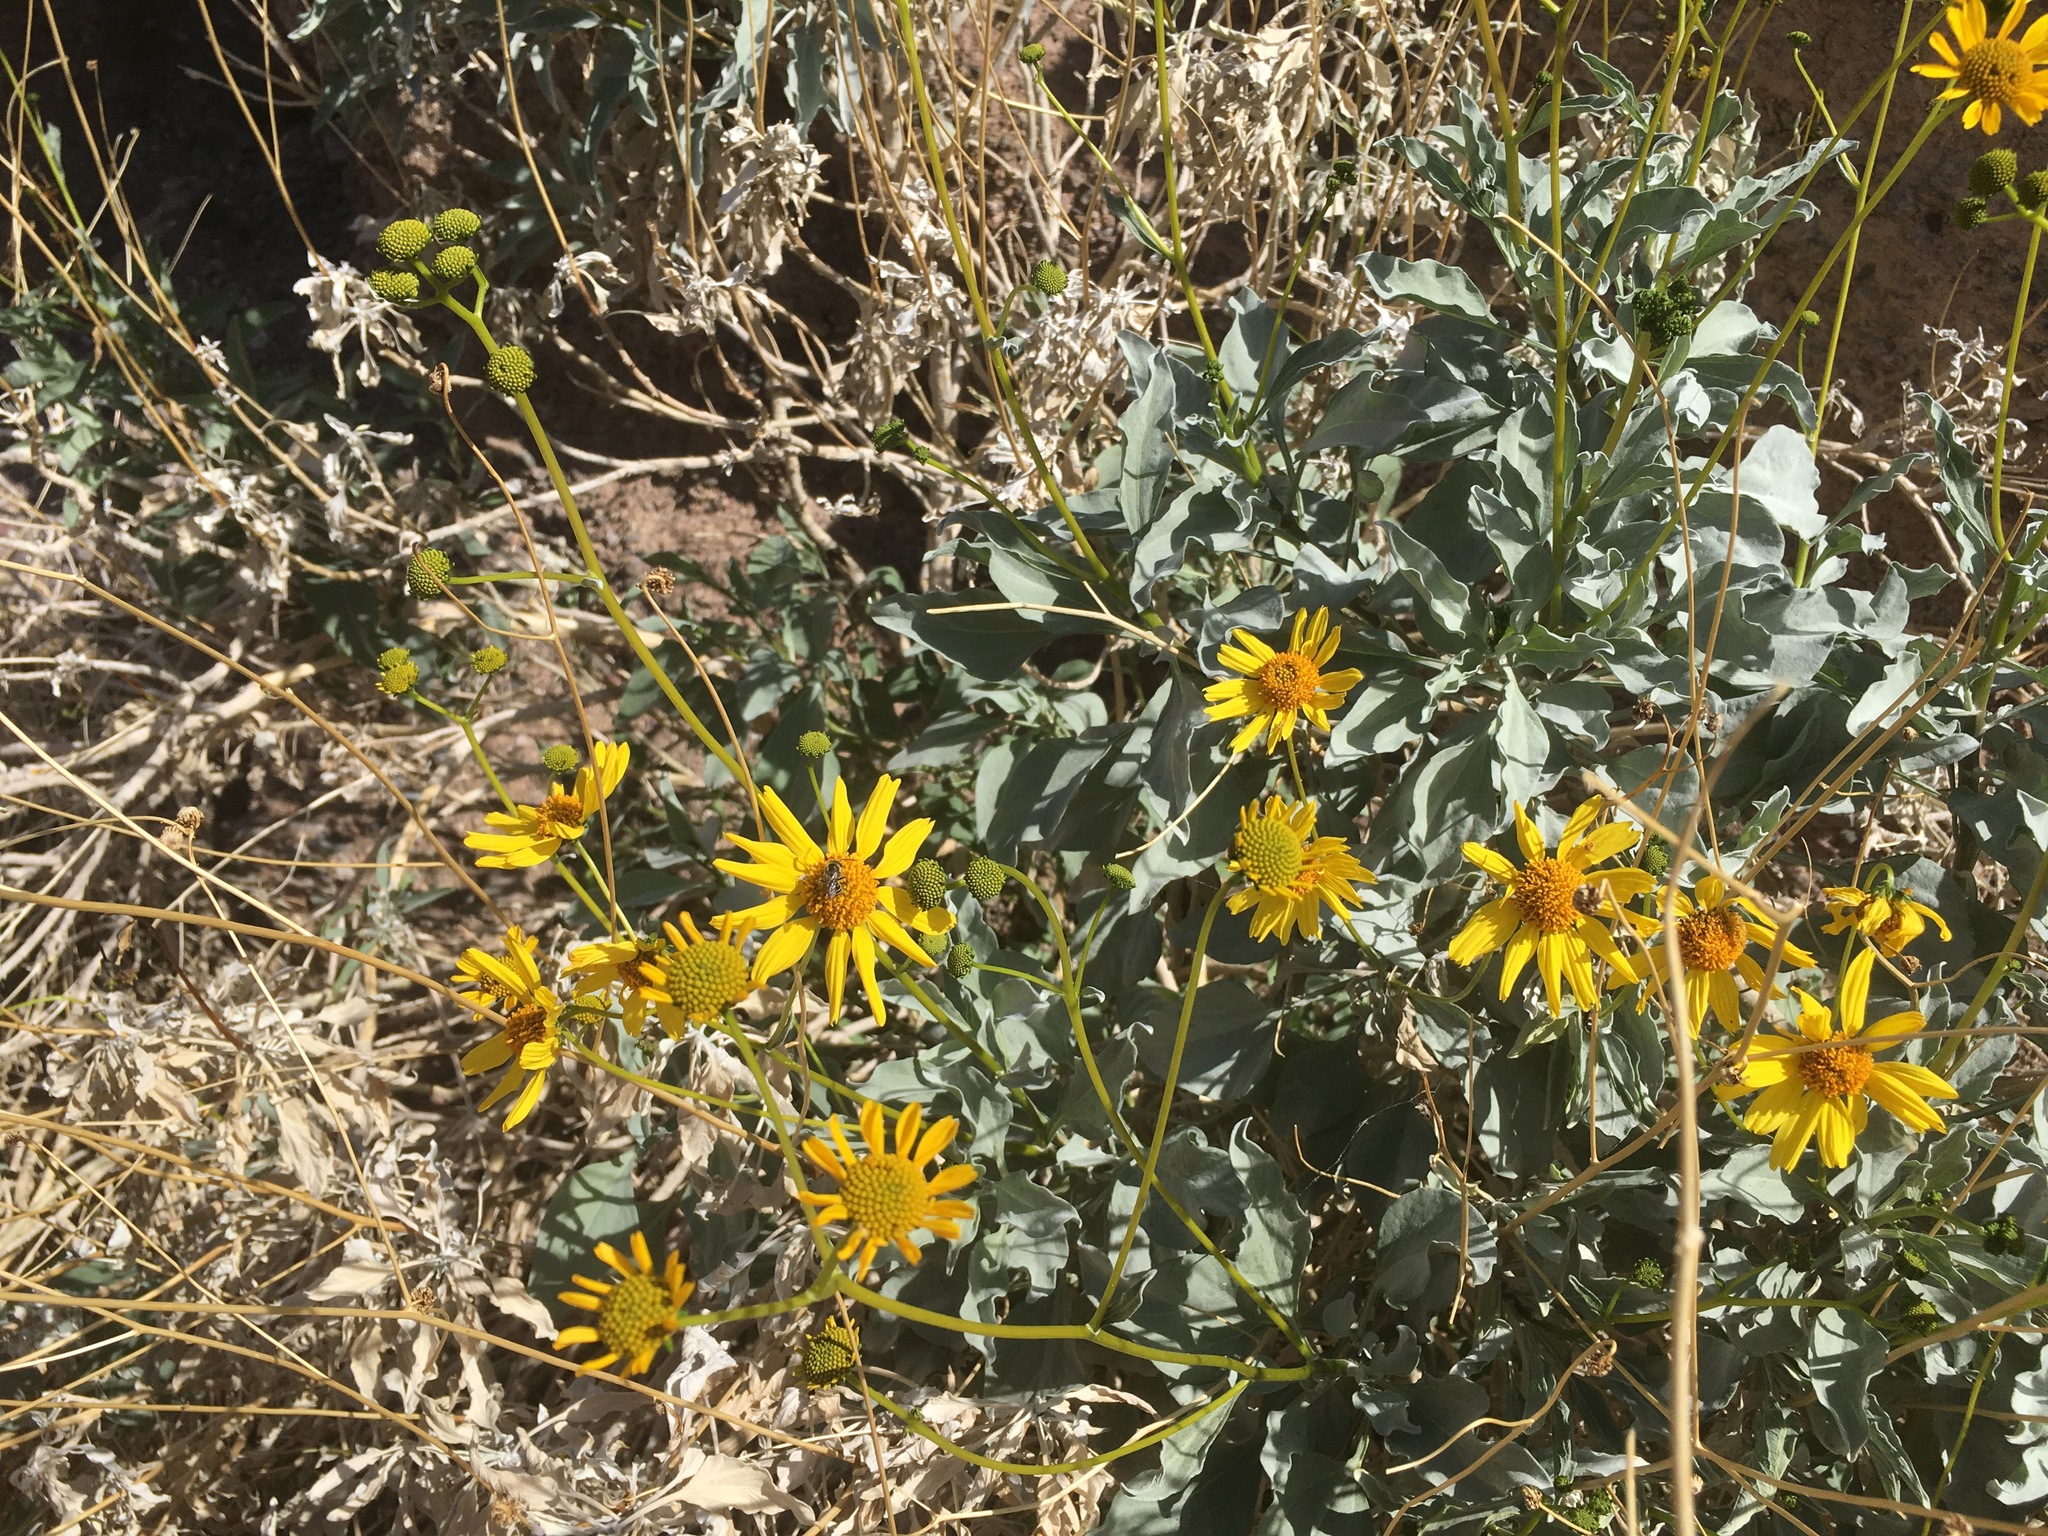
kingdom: Plantae
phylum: Tracheophyta
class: Magnoliopsida
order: Asterales
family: Asteraceae
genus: Encelia
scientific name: Encelia farinosa
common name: Brittlebush
